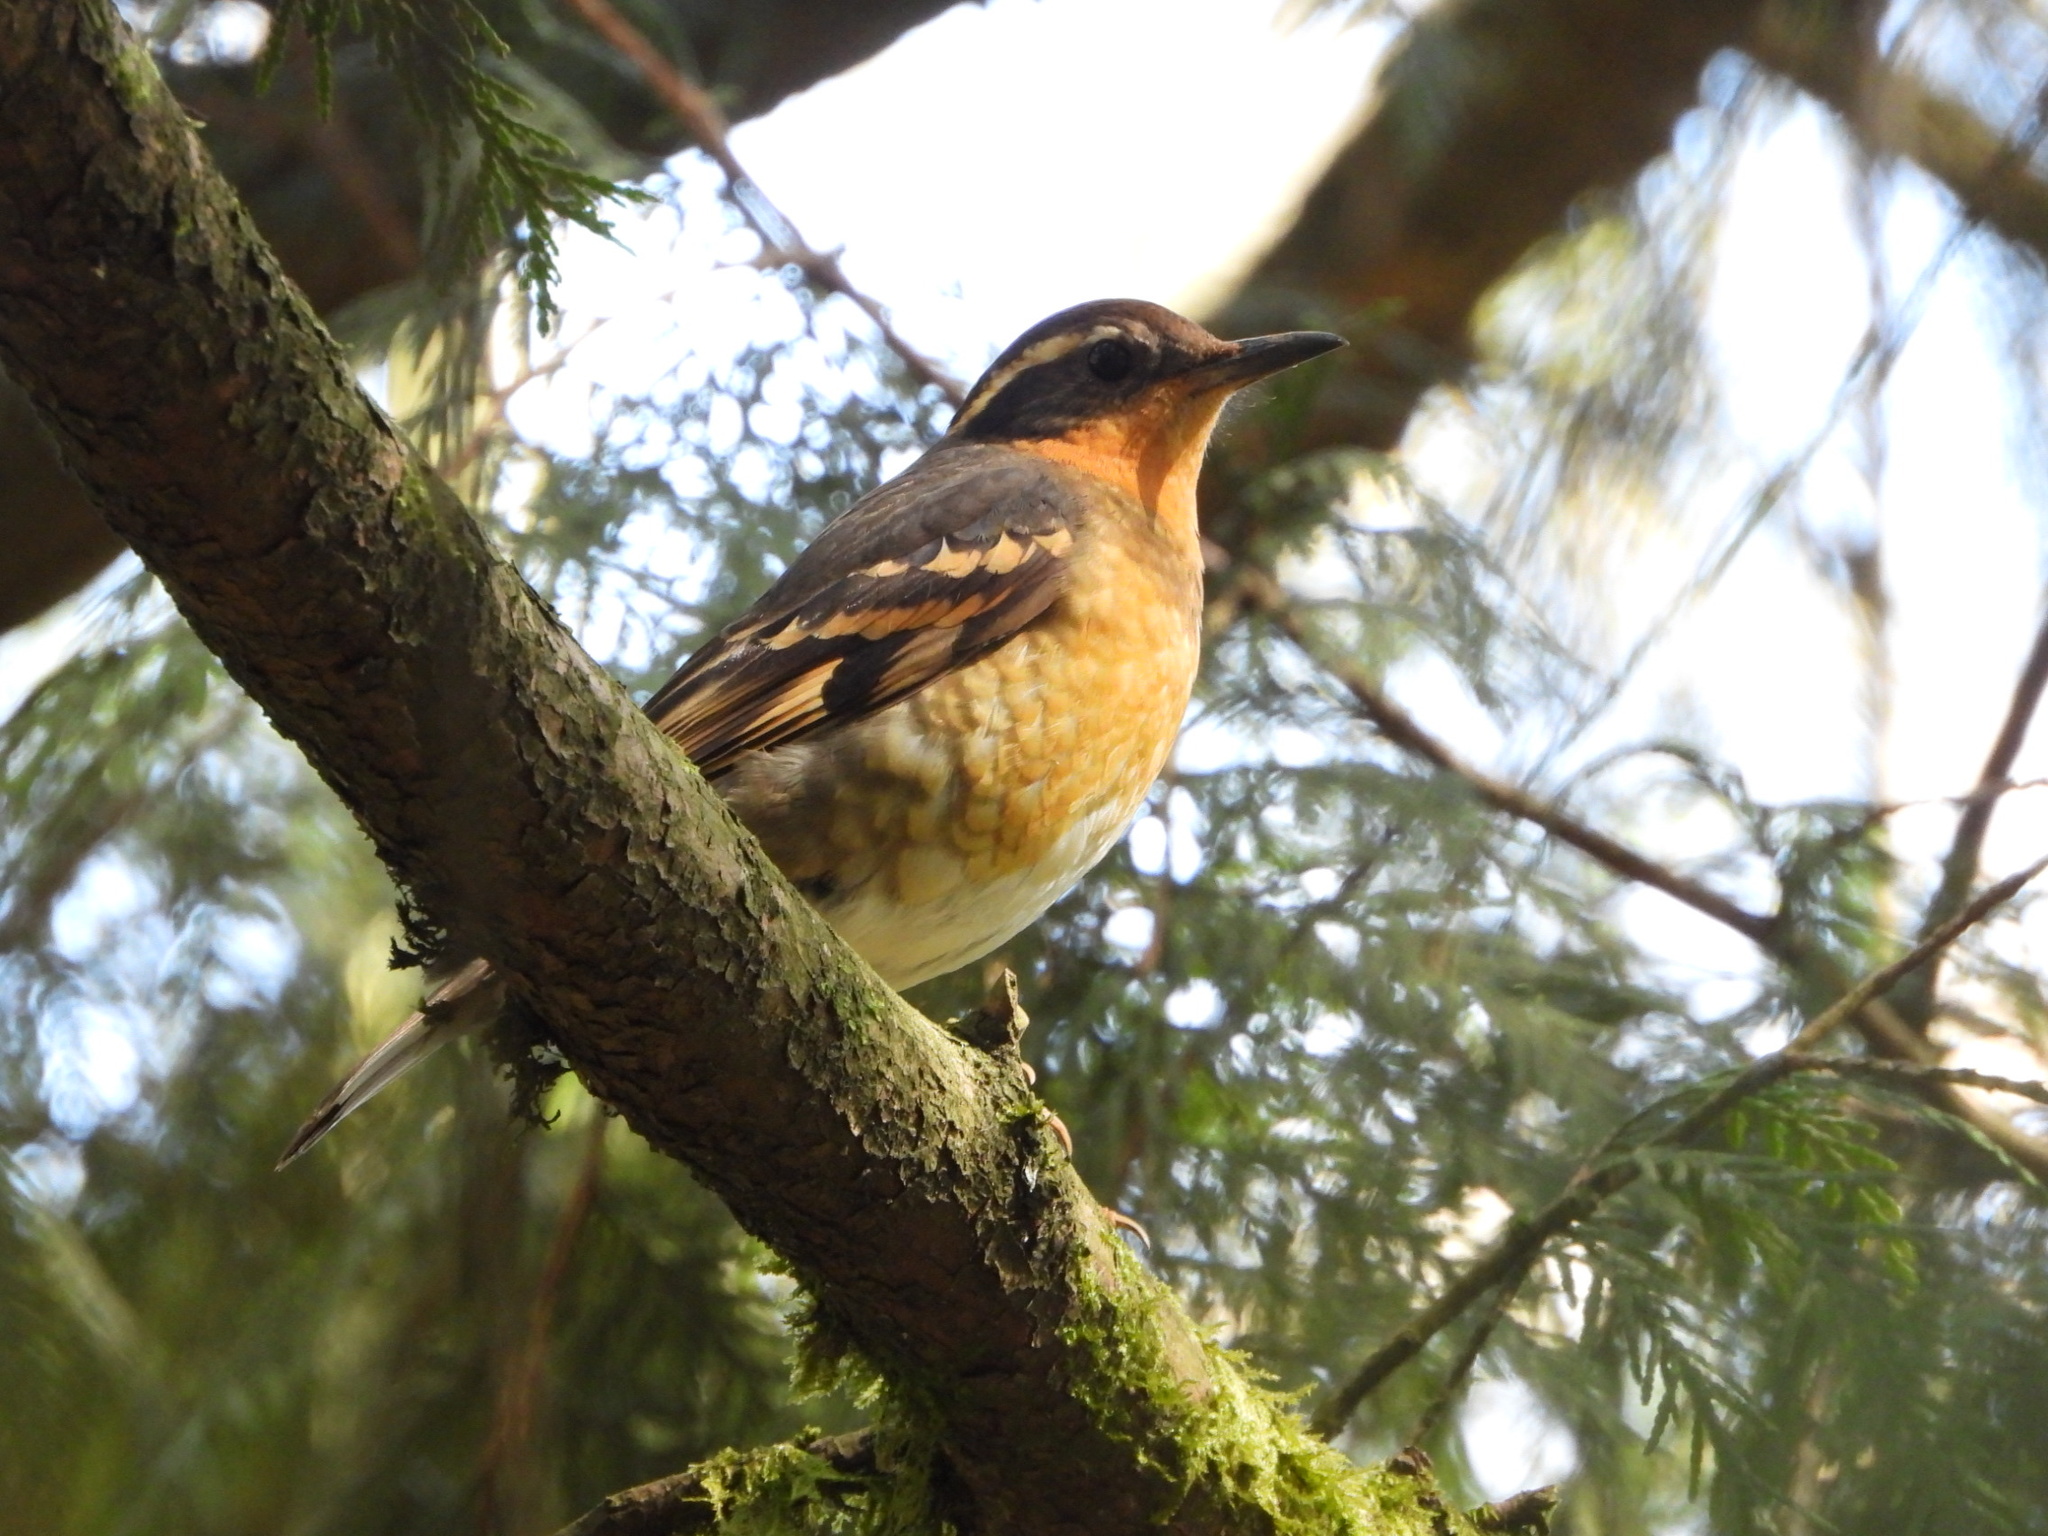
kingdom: Animalia
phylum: Chordata
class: Aves
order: Passeriformes
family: Turdidae
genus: Ixoreus
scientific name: Ixoreus naevius
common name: Varied thrush
